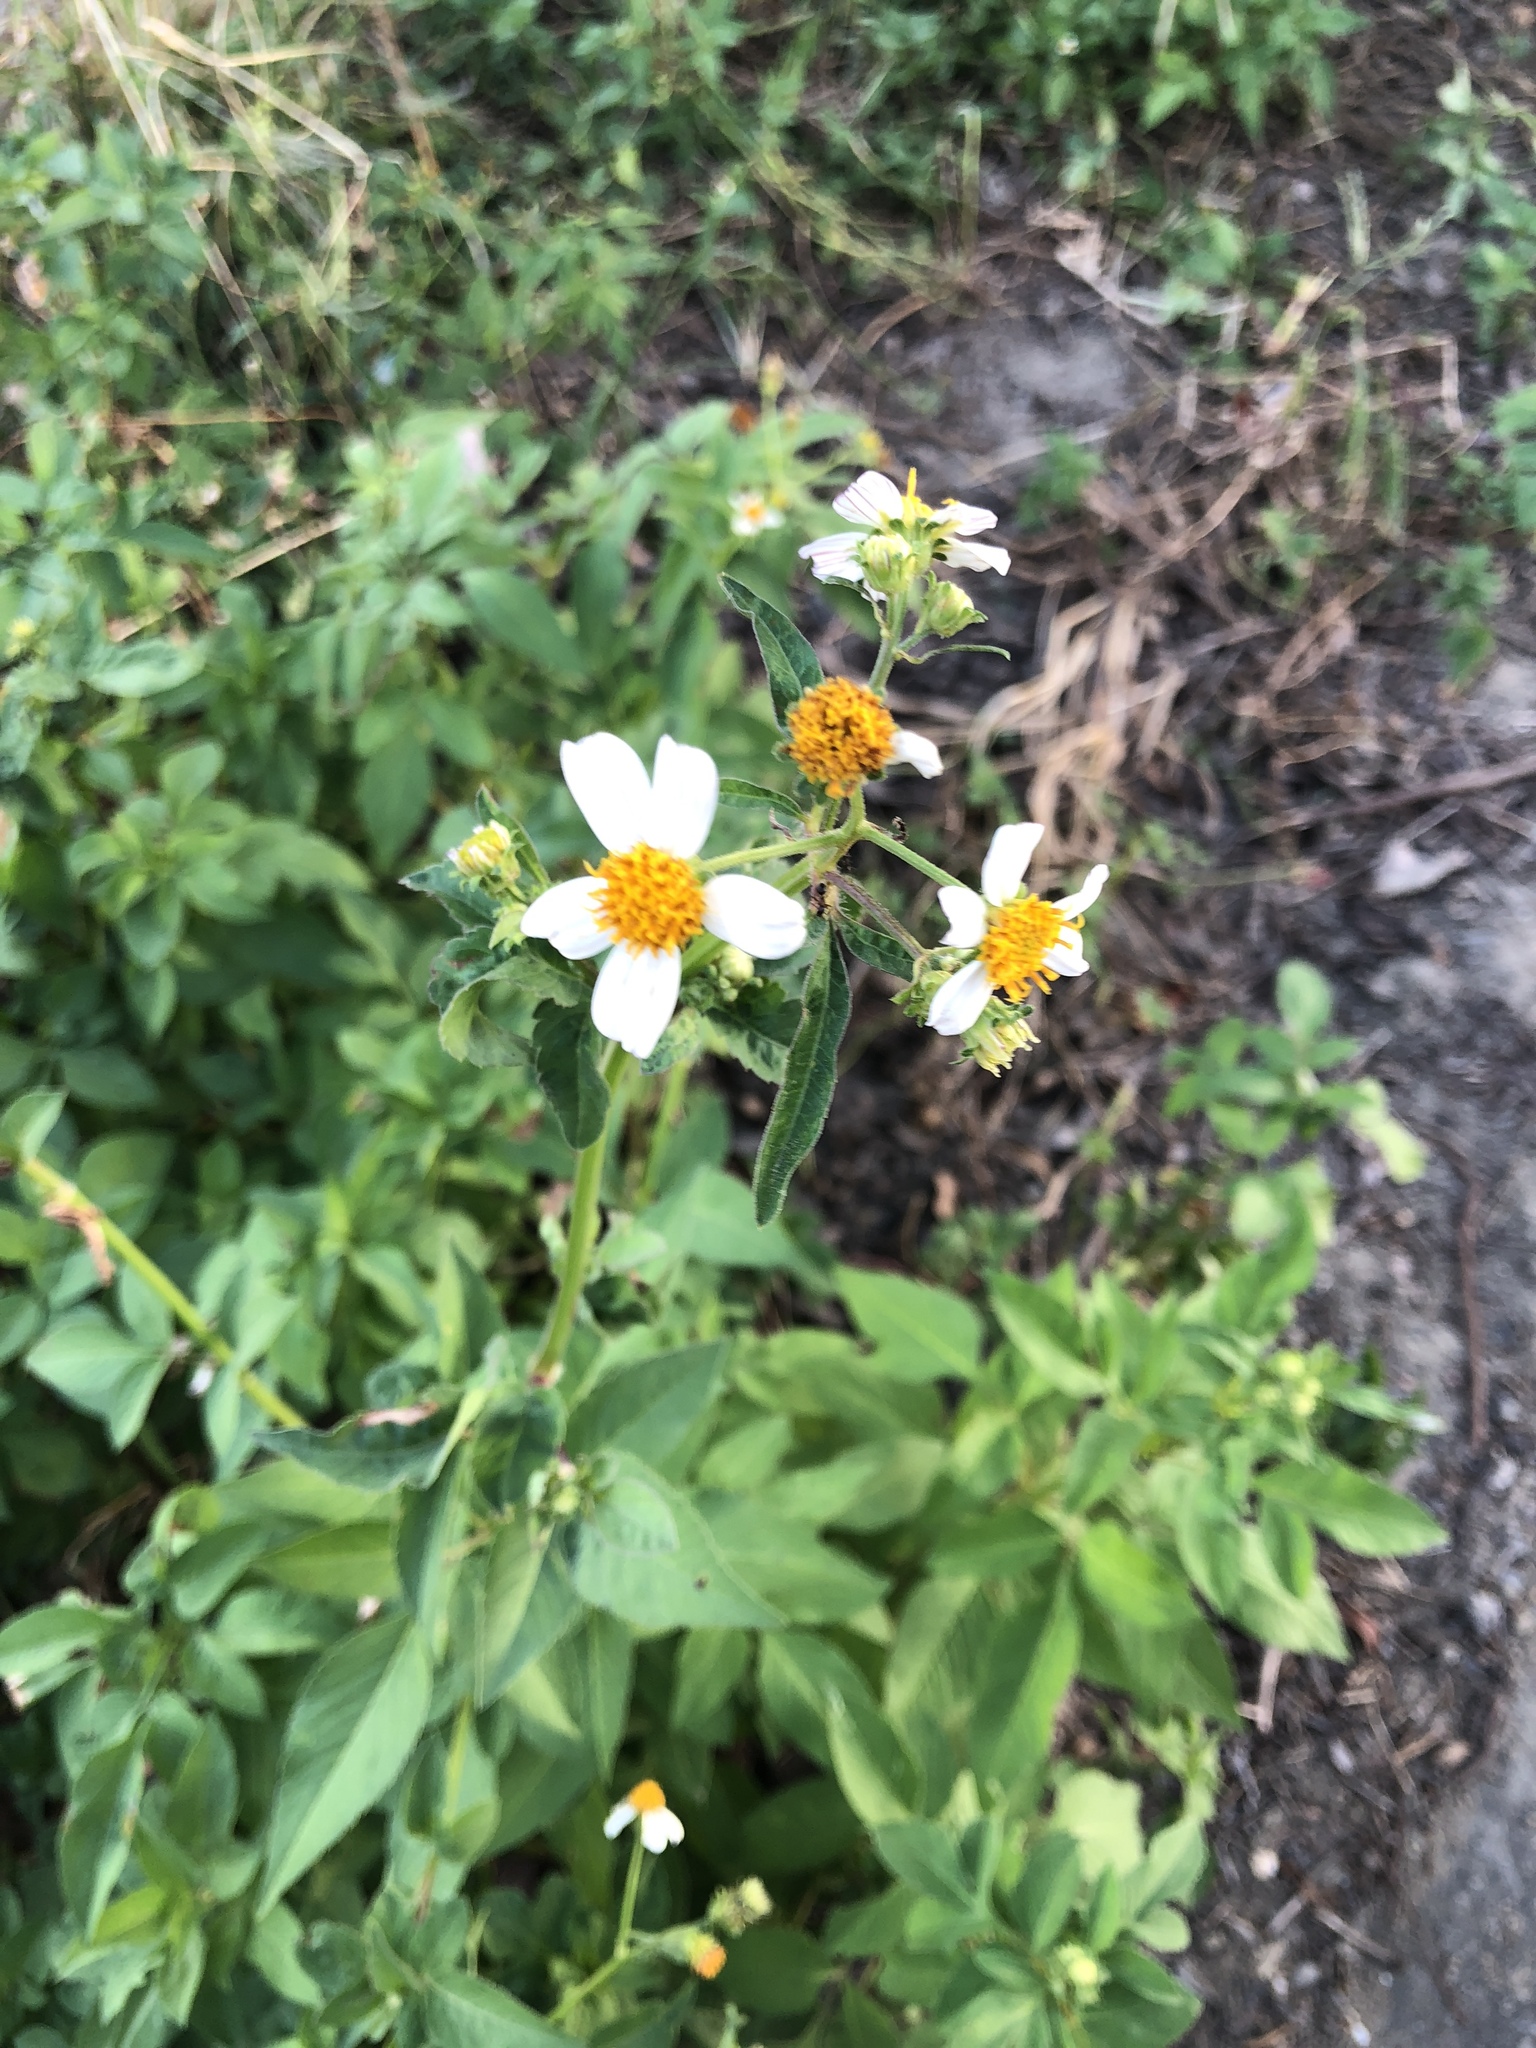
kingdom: Plantae
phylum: Tracheophyta
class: Magnoliopsida
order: Asterales
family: Asteraceae
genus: Bidens
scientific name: Bidens alba
